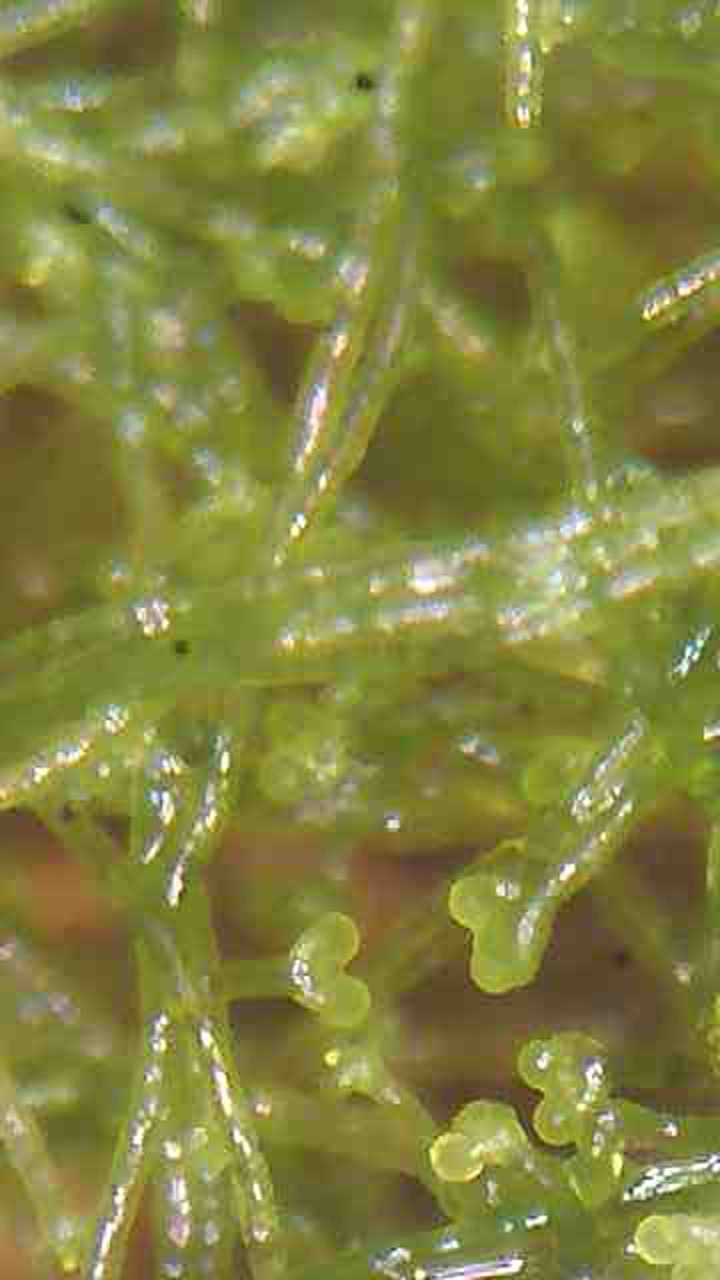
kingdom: Chromista
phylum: Ochrophyta
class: Xanthophyceae
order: Vaucheriales
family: Vaucheriaceae
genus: Vaucheria
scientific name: Vaucheria
